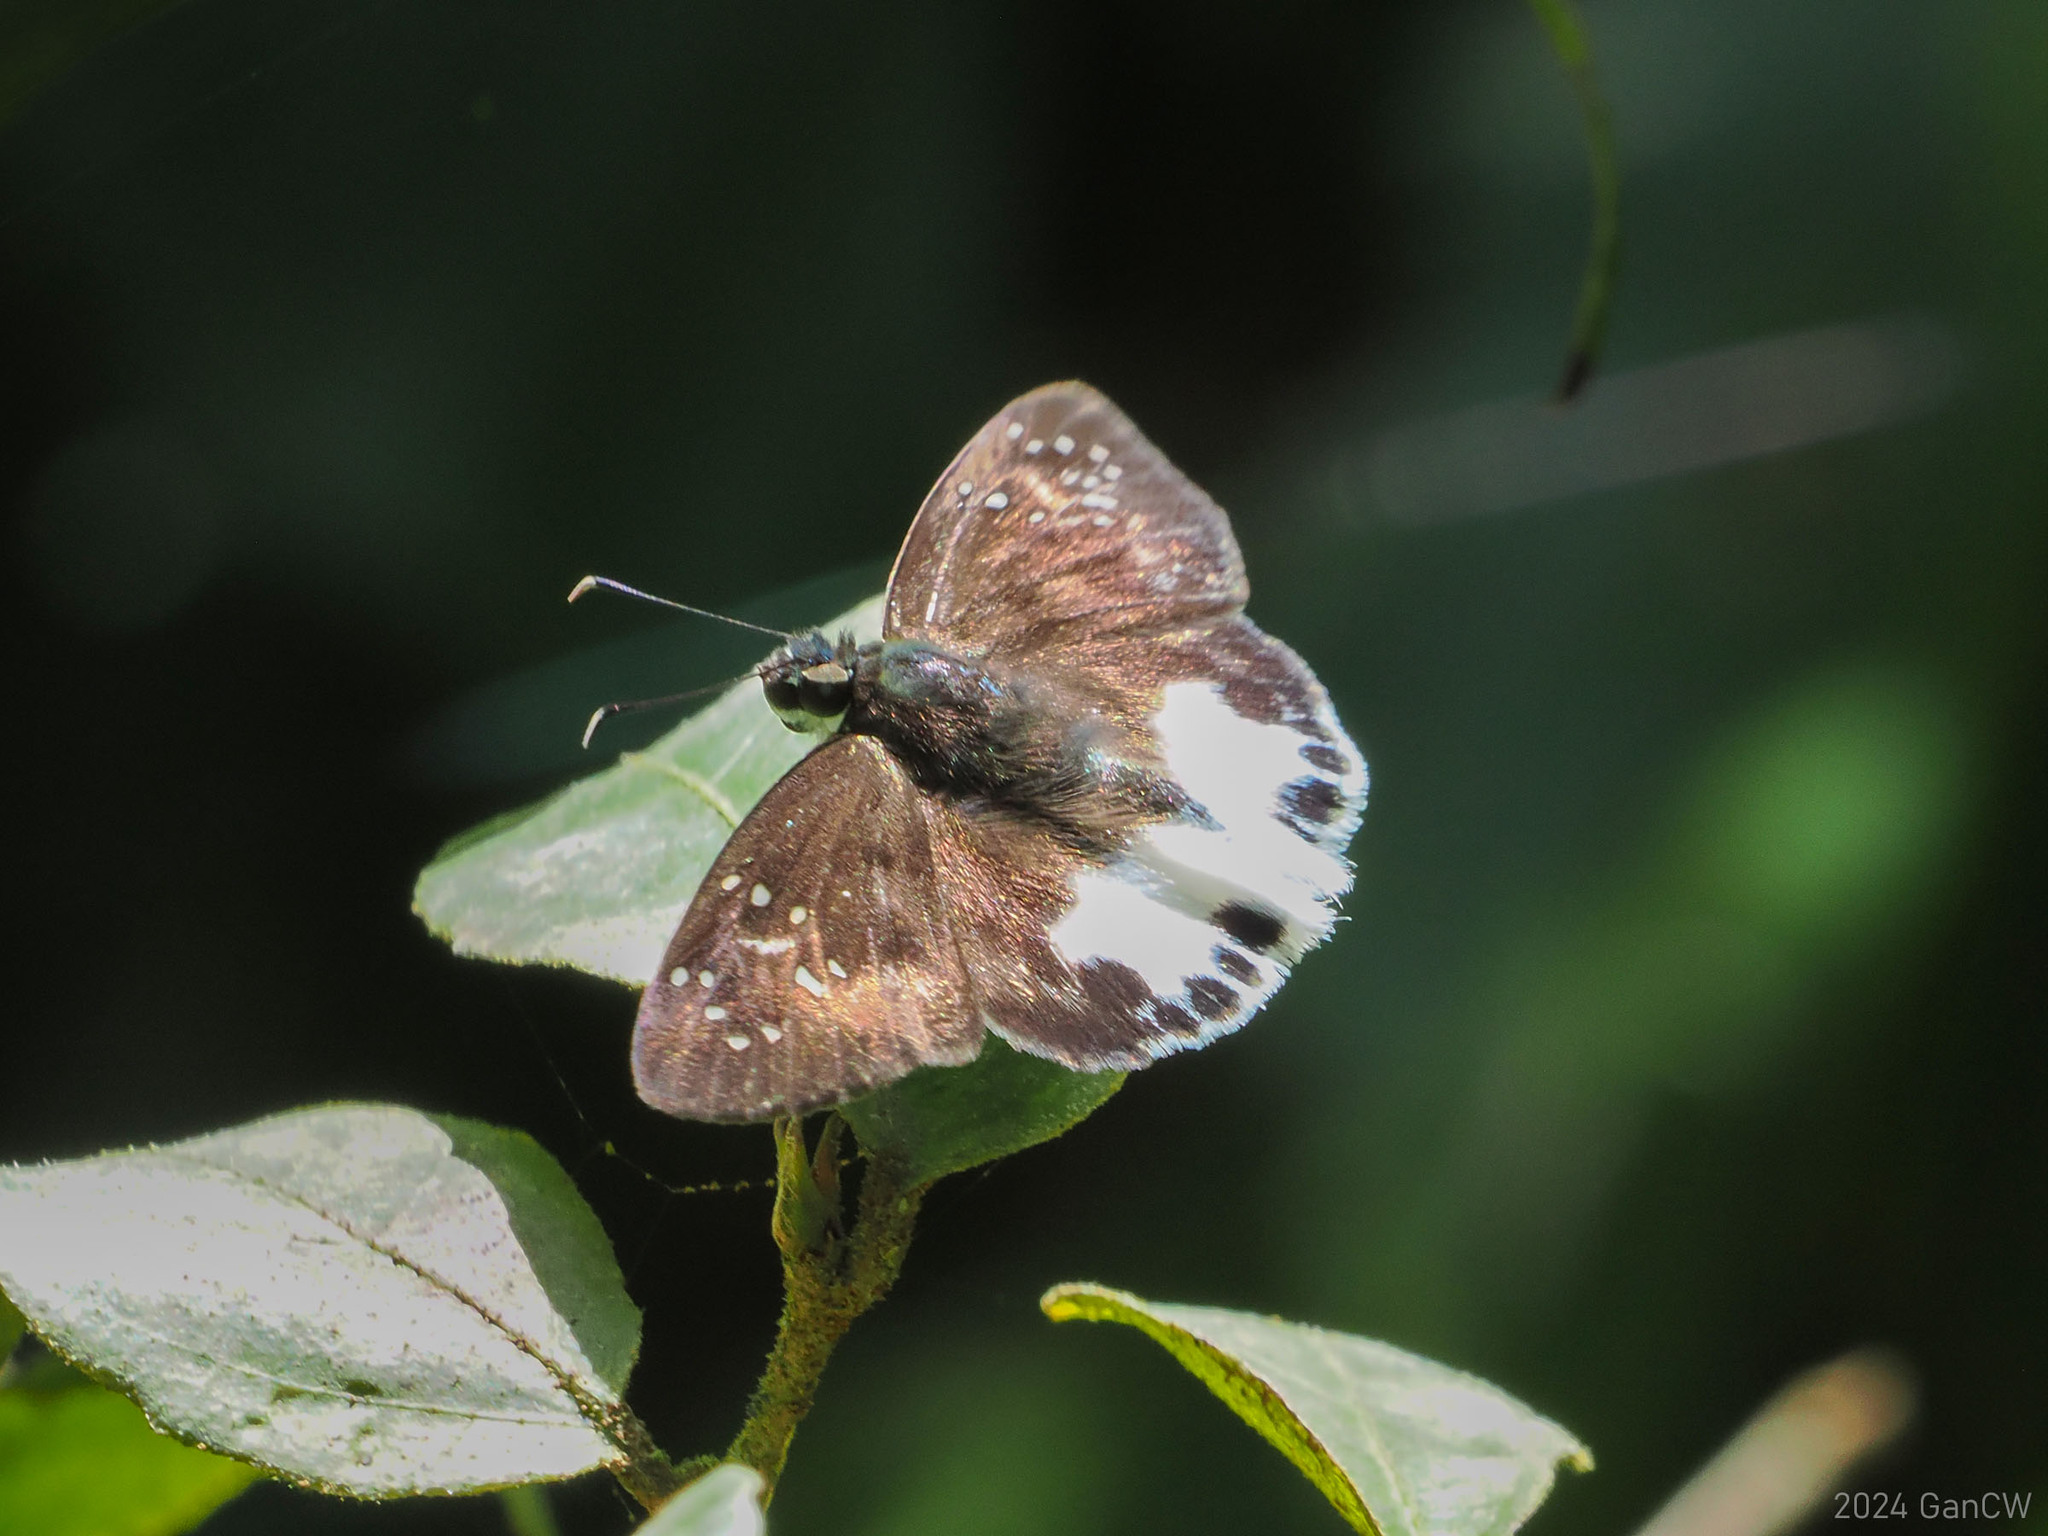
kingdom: Animalia
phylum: Arthropoda
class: Insecta
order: Lepidoptera
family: Hesperiidae
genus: Tagiades
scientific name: Tagiades trebellius
